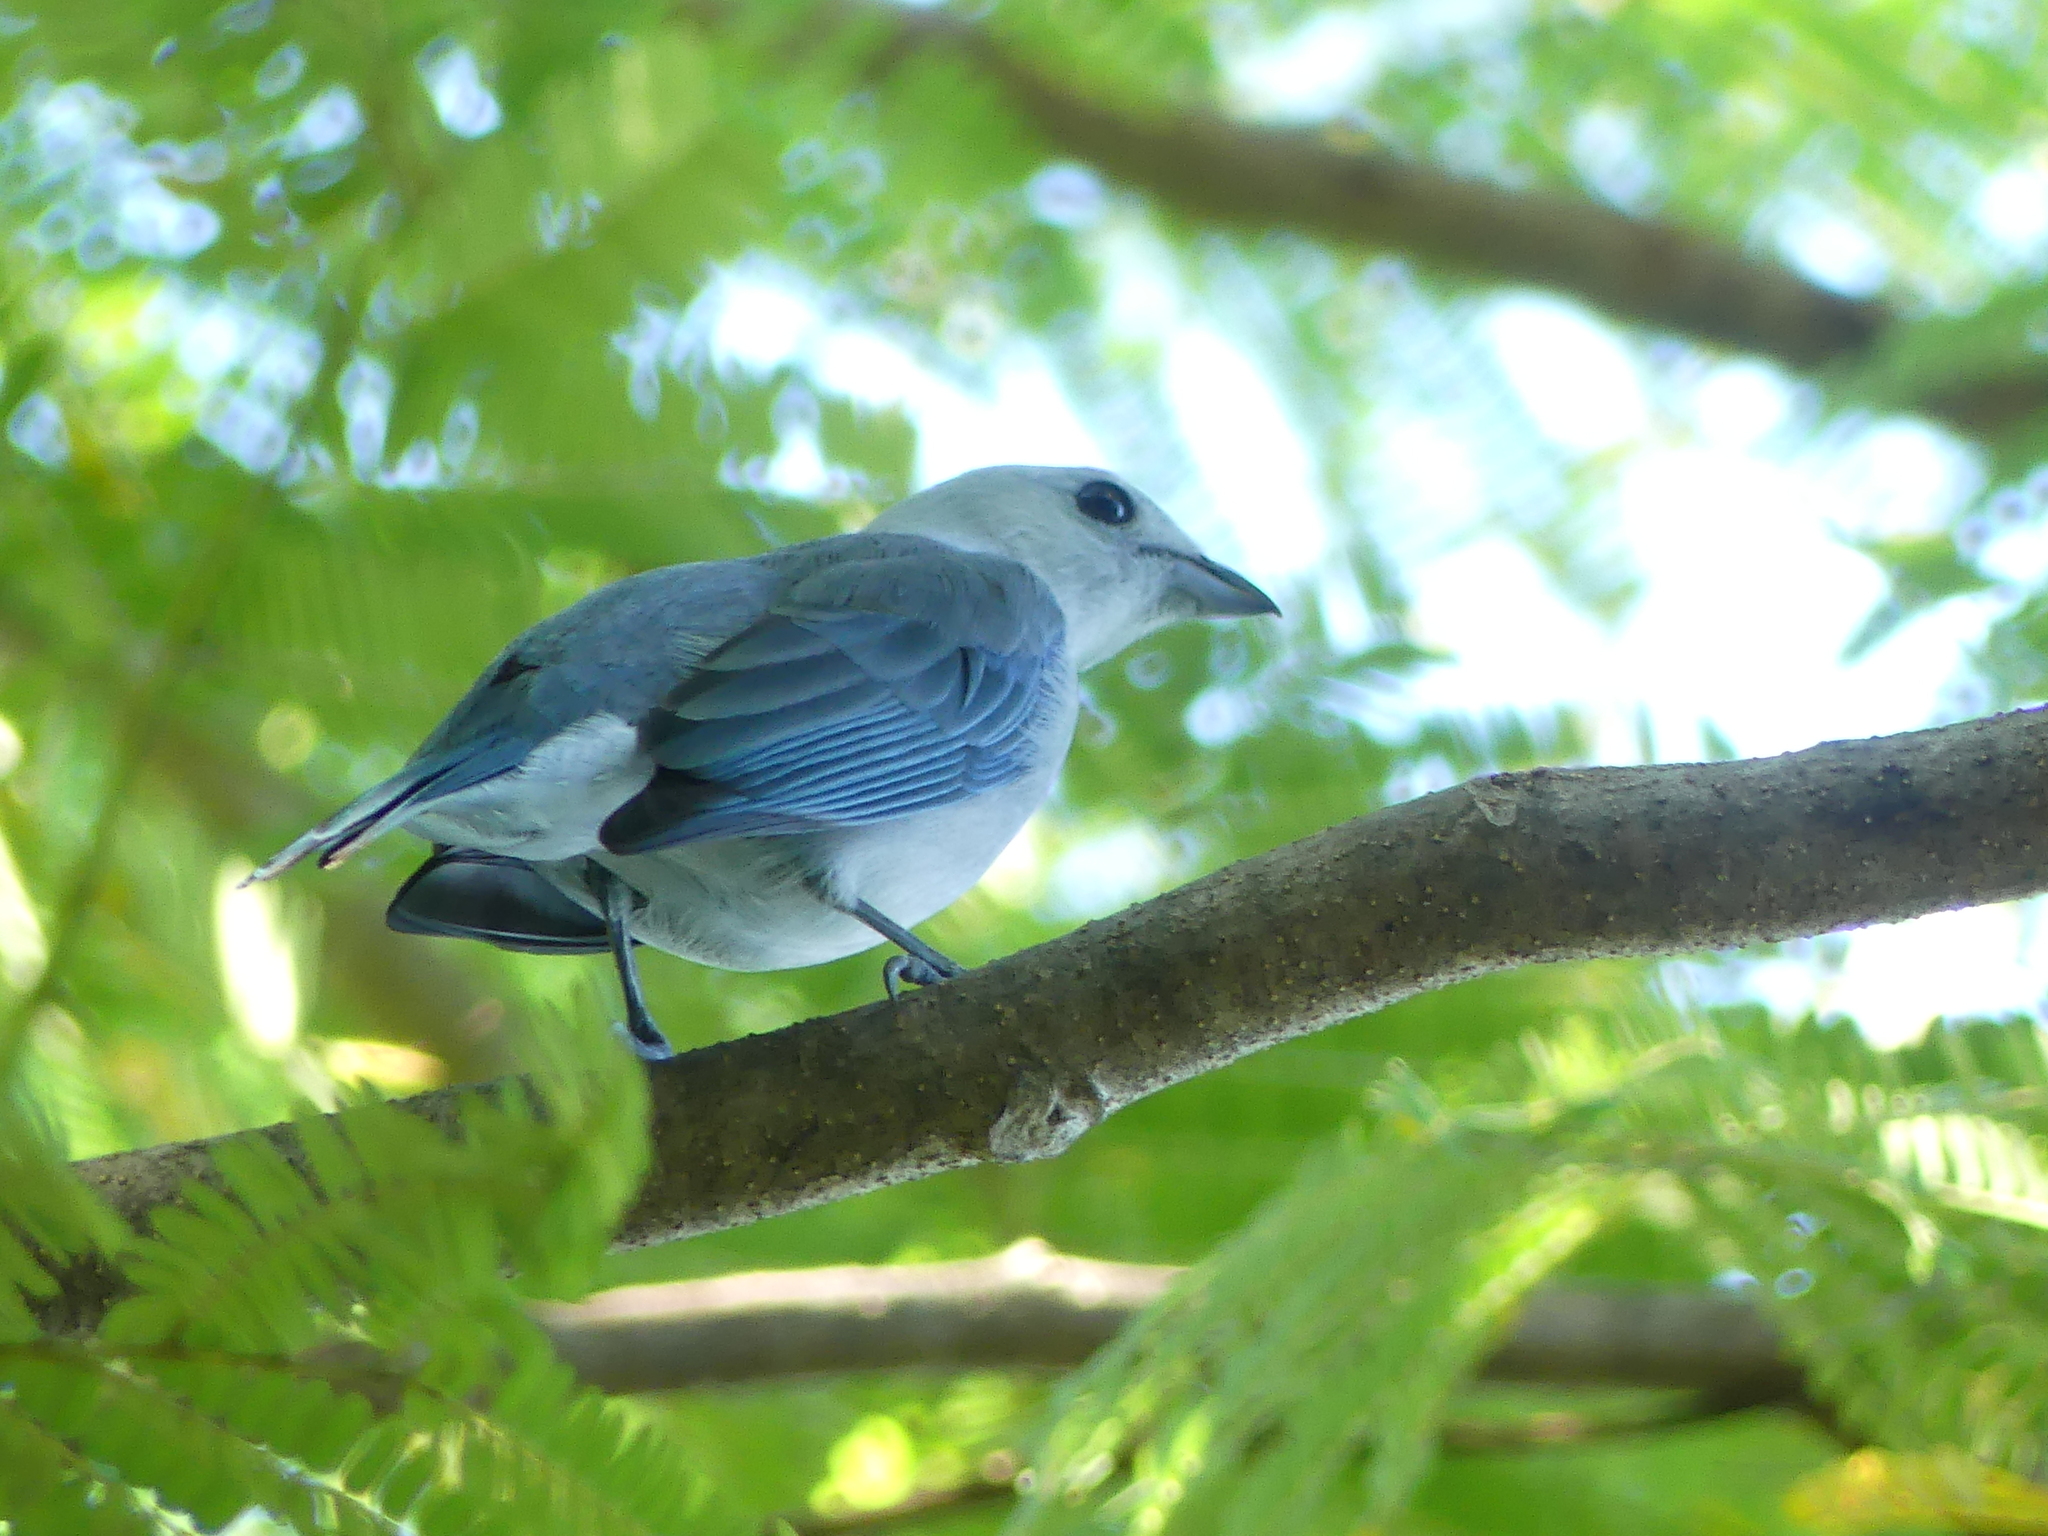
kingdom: Animalia
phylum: Chordata
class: Aves
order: Passeriformes
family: Thraupidae
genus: Thraupis
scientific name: Thraupis episcopus
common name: Blue-grey tanager
